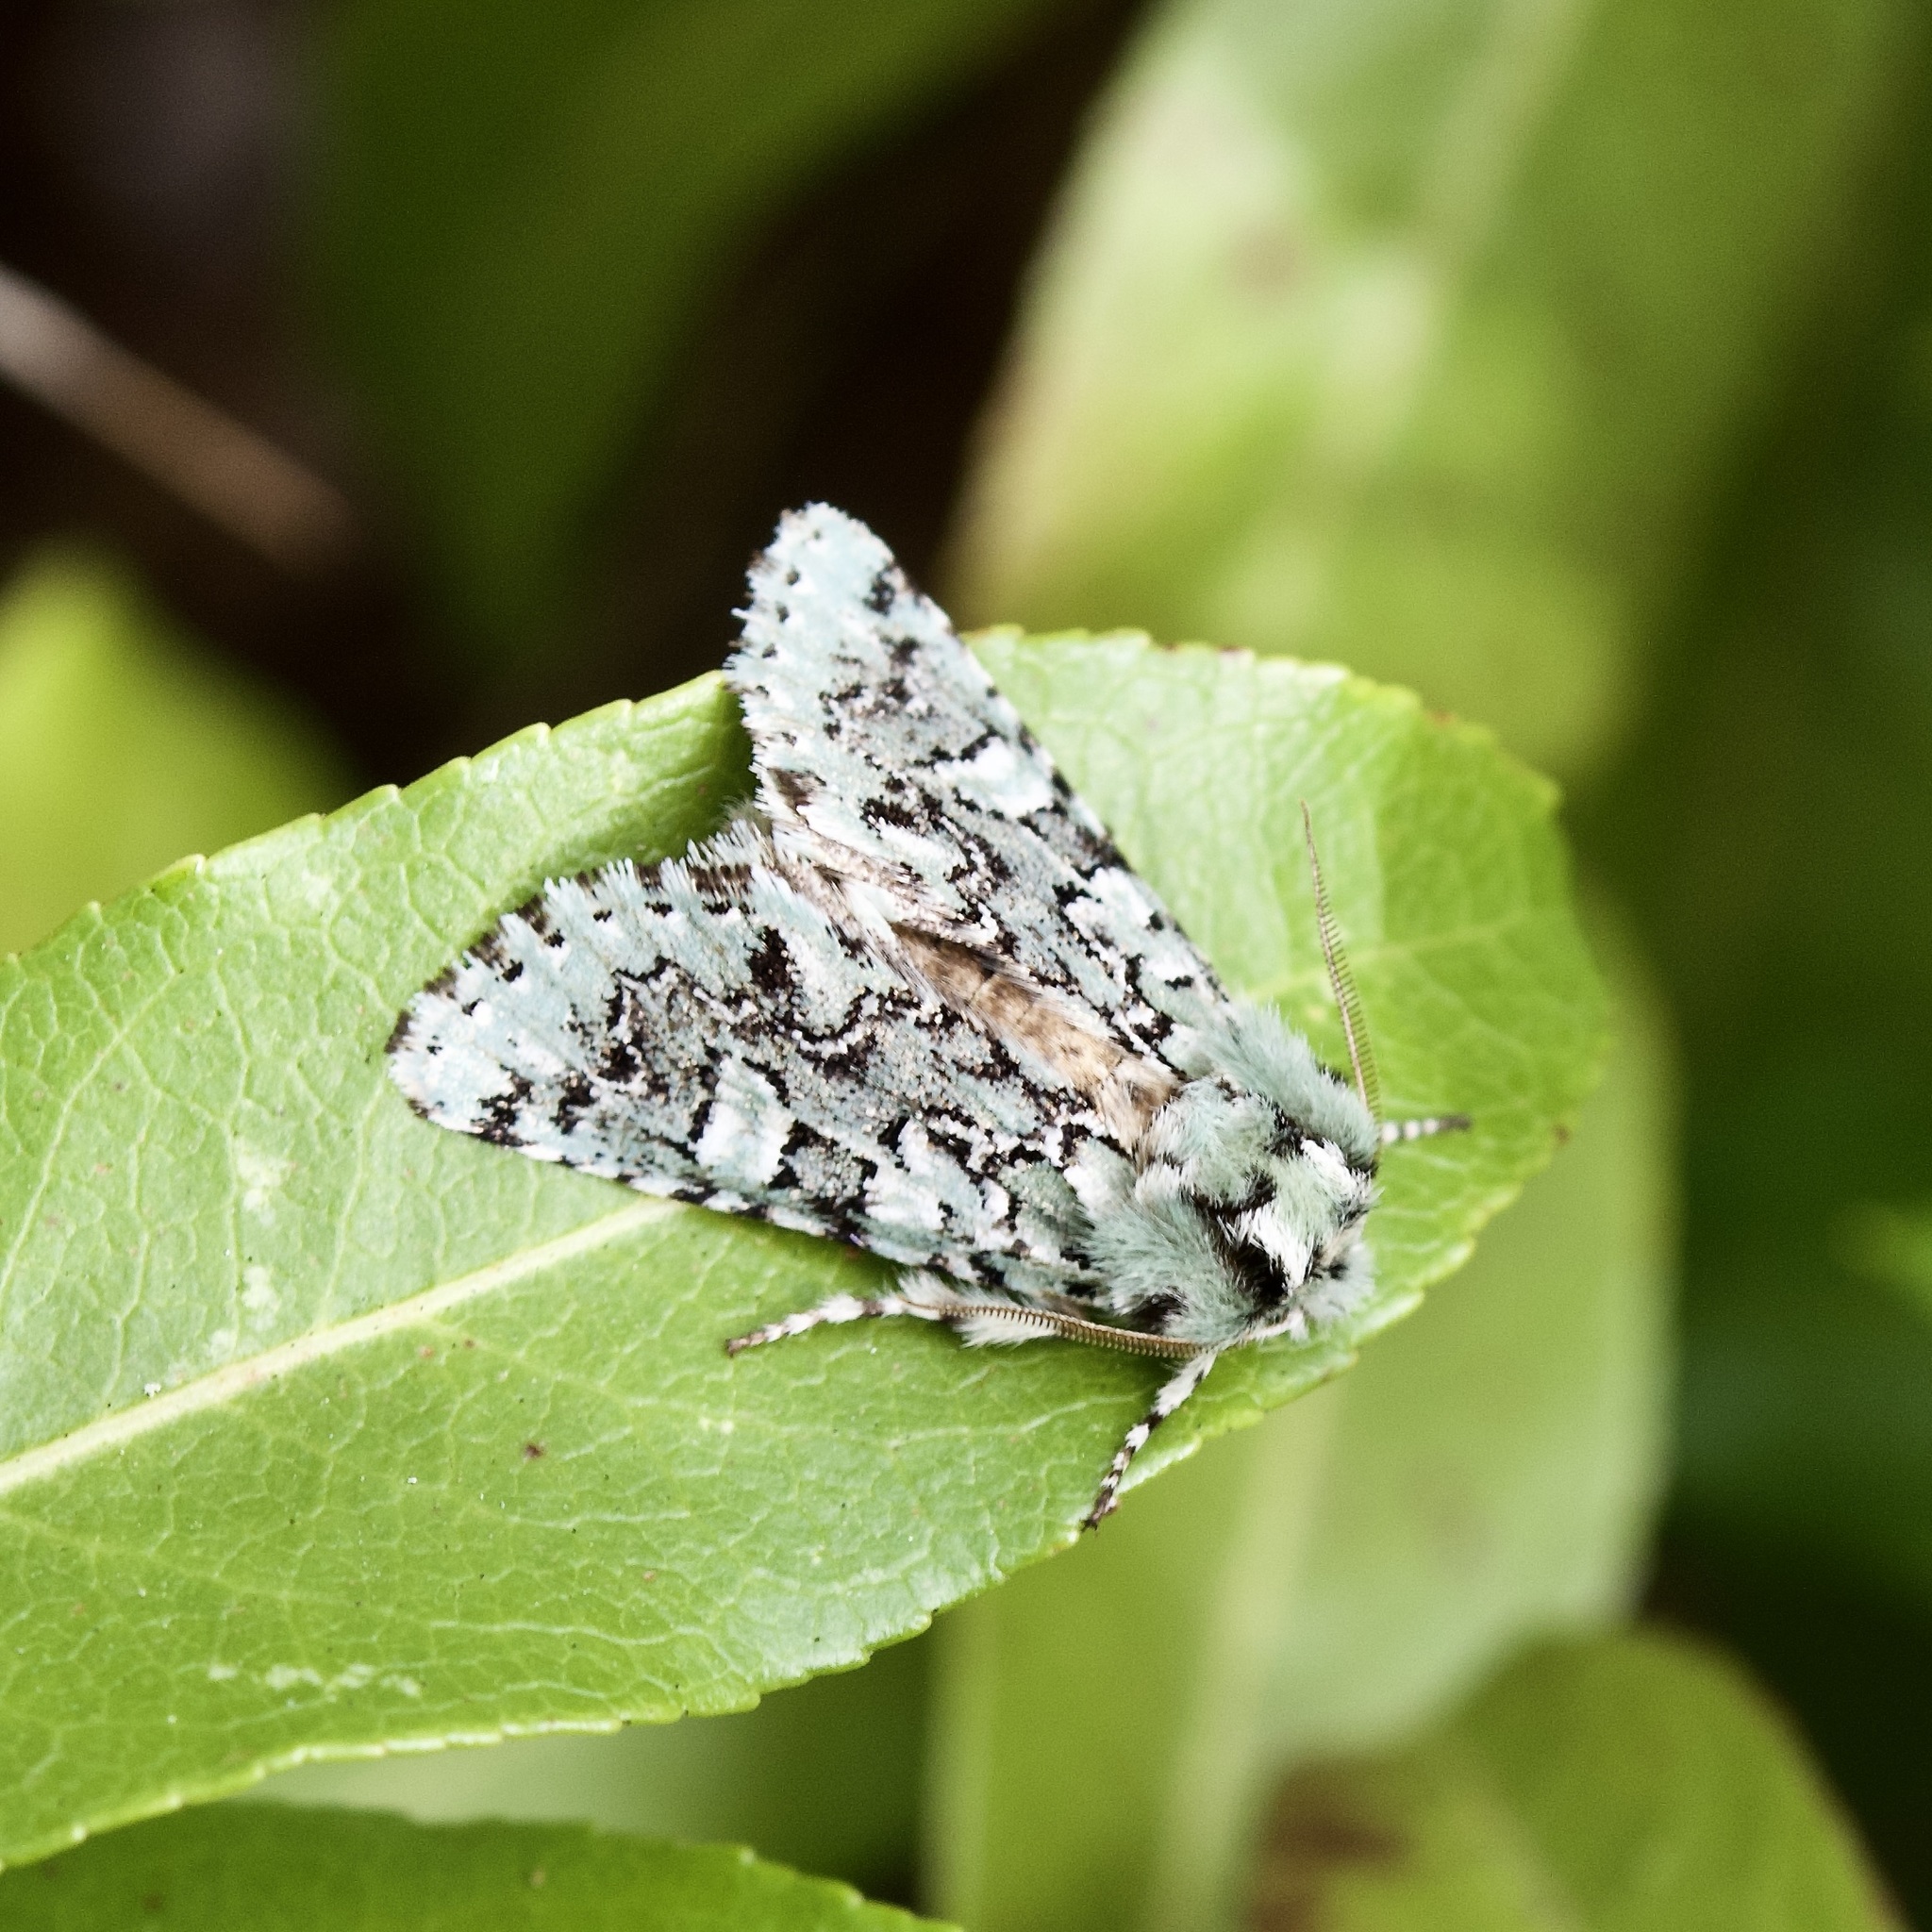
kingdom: Animalia
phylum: Arthropoda
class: Insecta
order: Lepidoptera
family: Noctuidae
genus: Feralia
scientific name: Feralia jocosa
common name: Joker
